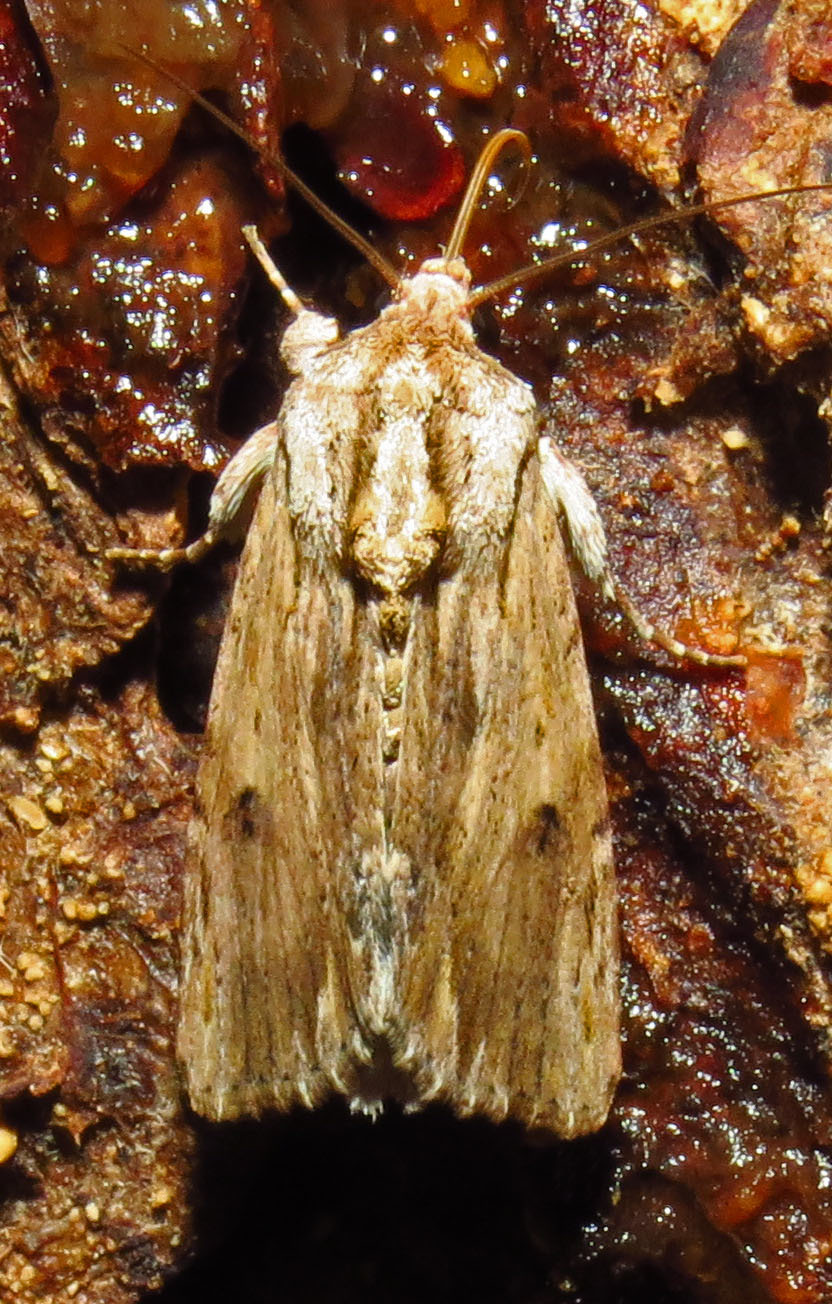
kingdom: Animalia
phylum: Arthropoda
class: Insecta
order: Lepidoptera
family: Noctuidae
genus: Spodoptera
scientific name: Spodoptera eridania
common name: Southern army worm
